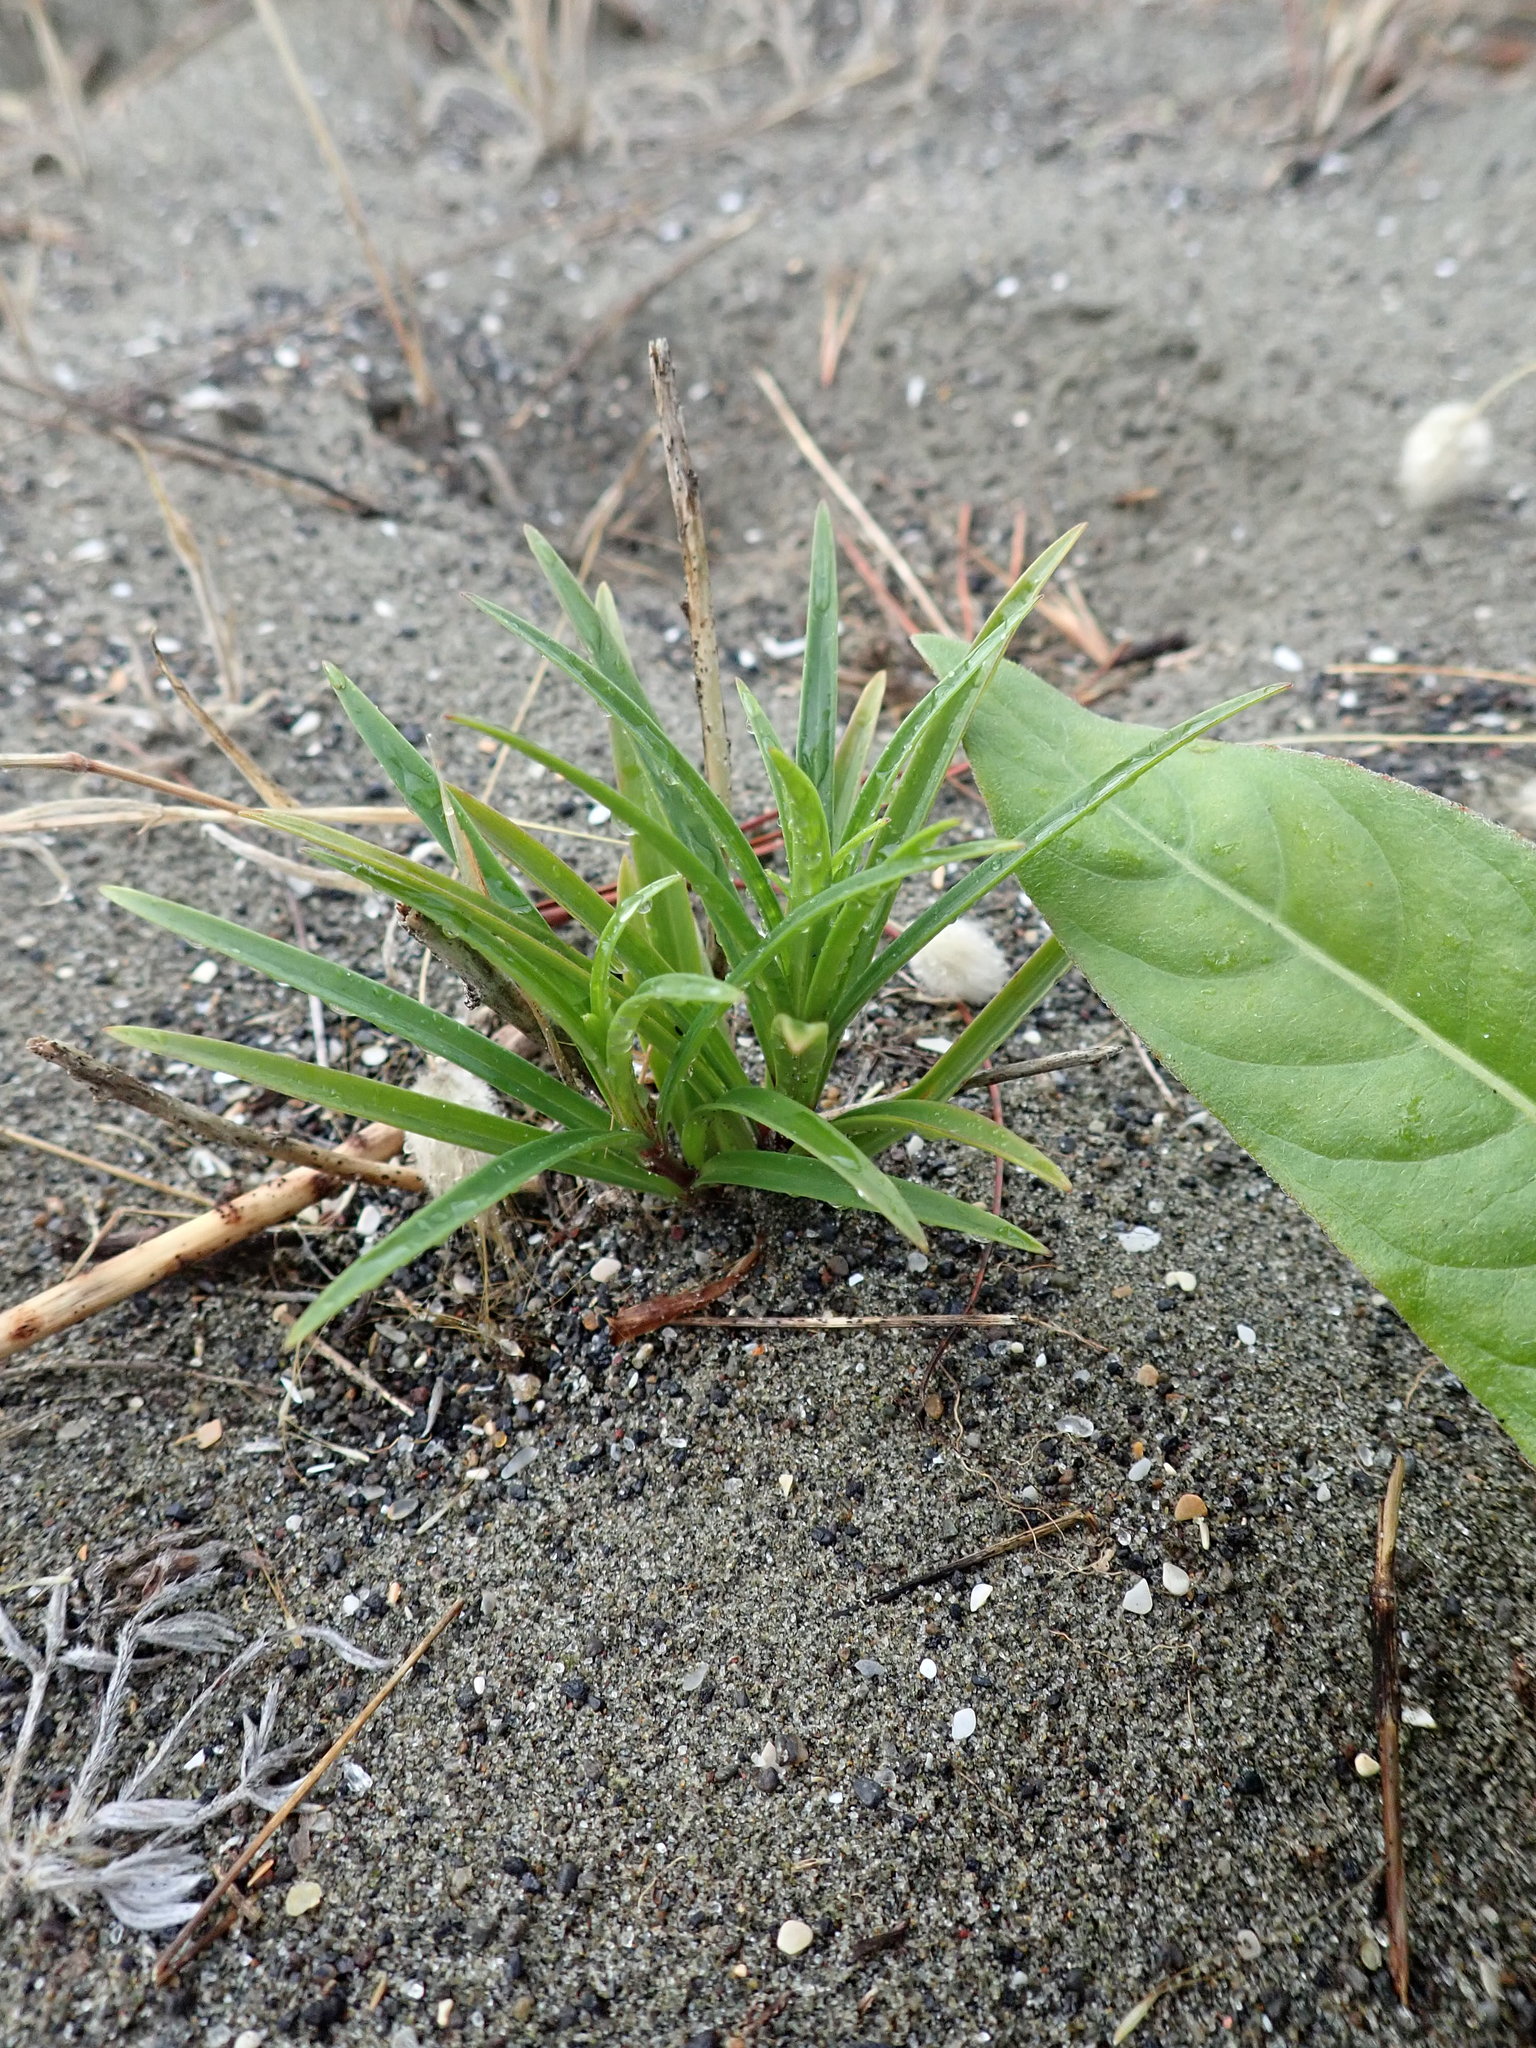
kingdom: Plantae
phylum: Tracheophyta
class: Liliopsida
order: Liliales
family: Liliaceae
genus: Lilium
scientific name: Lilium formosanum
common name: Formosa lily
